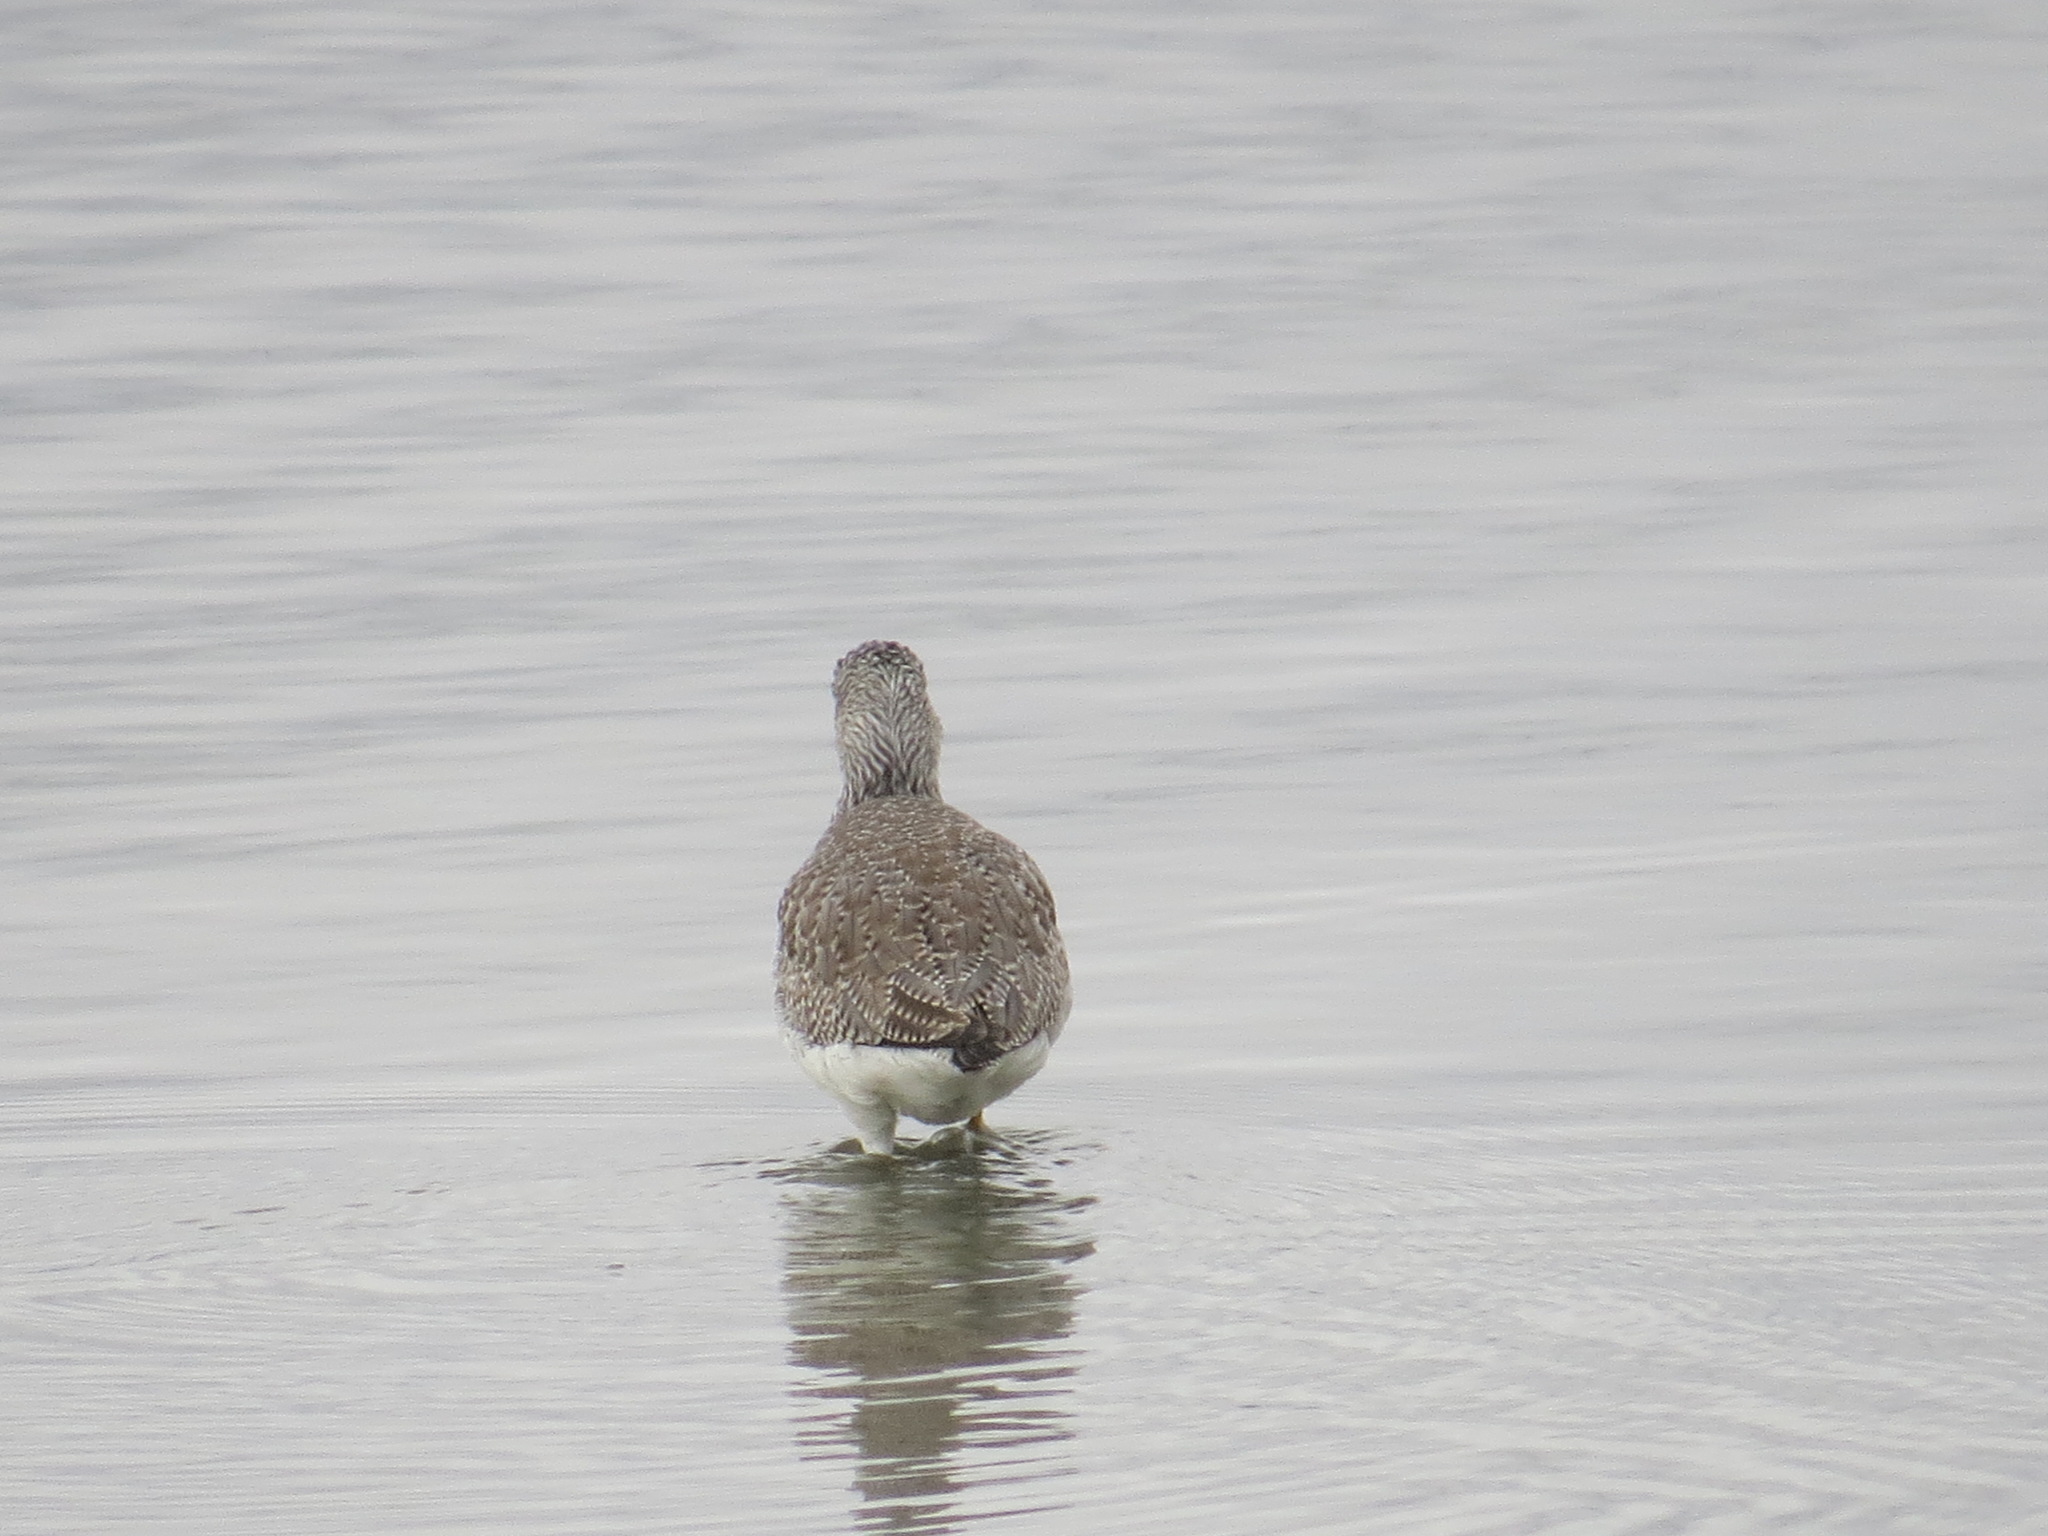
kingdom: Animalia
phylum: Chordata
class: Aves
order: Charadriiformes
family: Scolopacidae
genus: Tringa
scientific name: Tringa melanoleuca
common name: Greater yellowlegs
